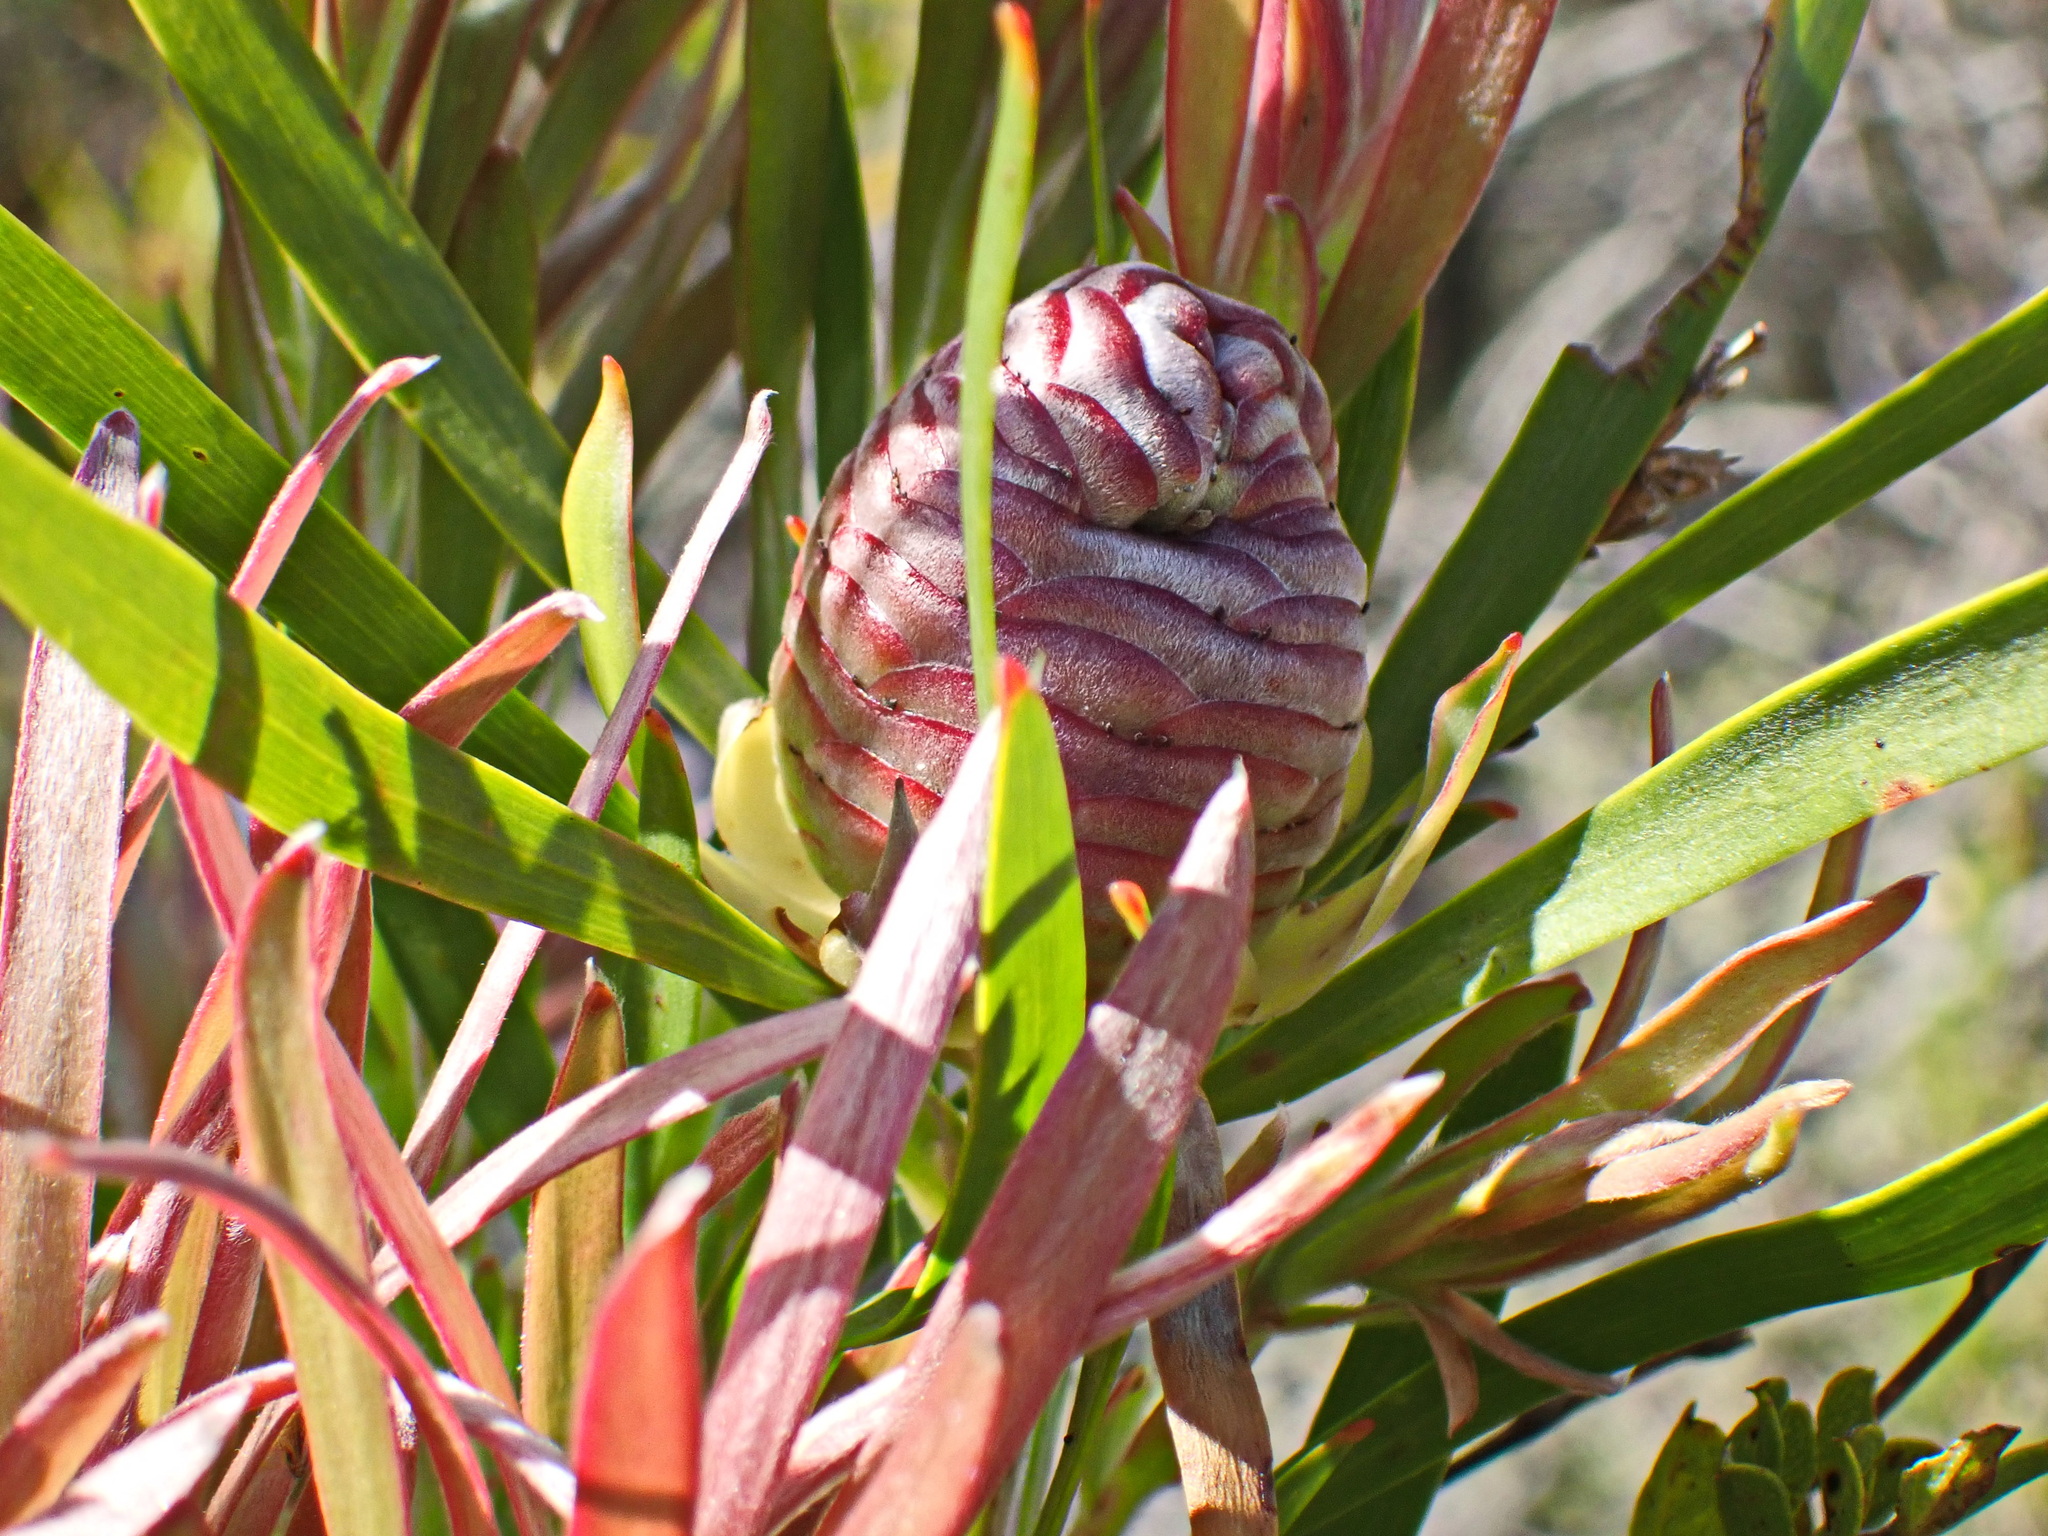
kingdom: Plantae
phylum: Tracheophyta
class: Magnoliopsida
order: Proteales
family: Proteaceae
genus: Leucadendron
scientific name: Leucadendron eucalyptifolium
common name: Gum-leaved conebush
